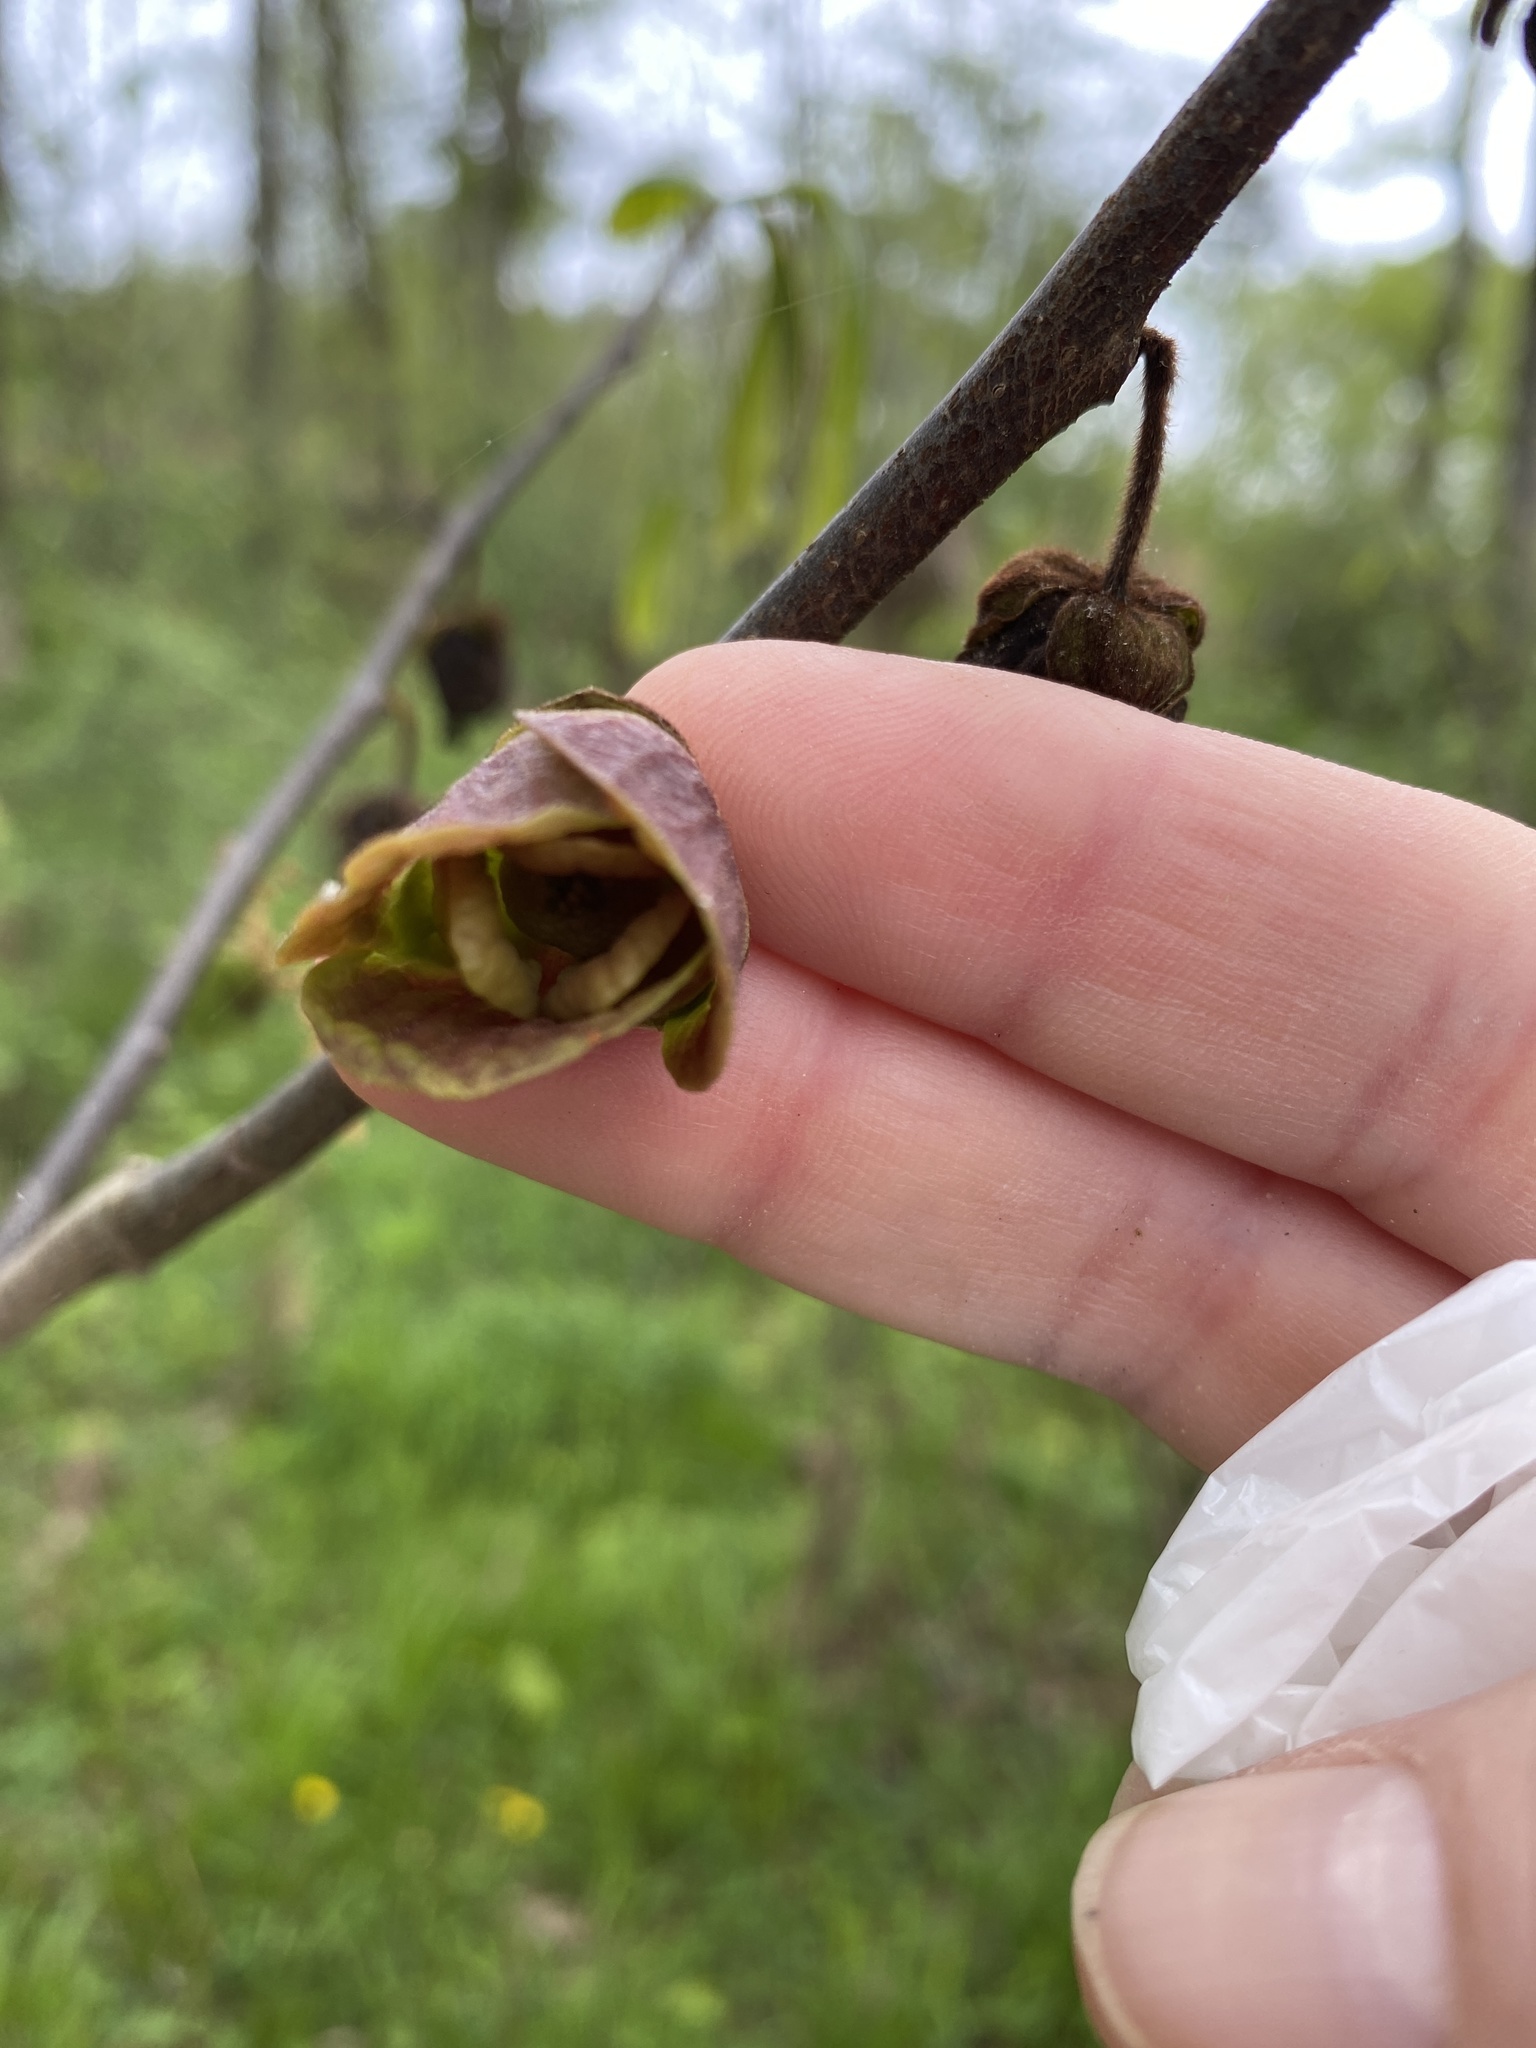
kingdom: Plantae
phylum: Tracheophyta
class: Magnoliopsida
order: Magnoliales
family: Annonaceae
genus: Asimina
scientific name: Asimina triloba
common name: Dog-banana
